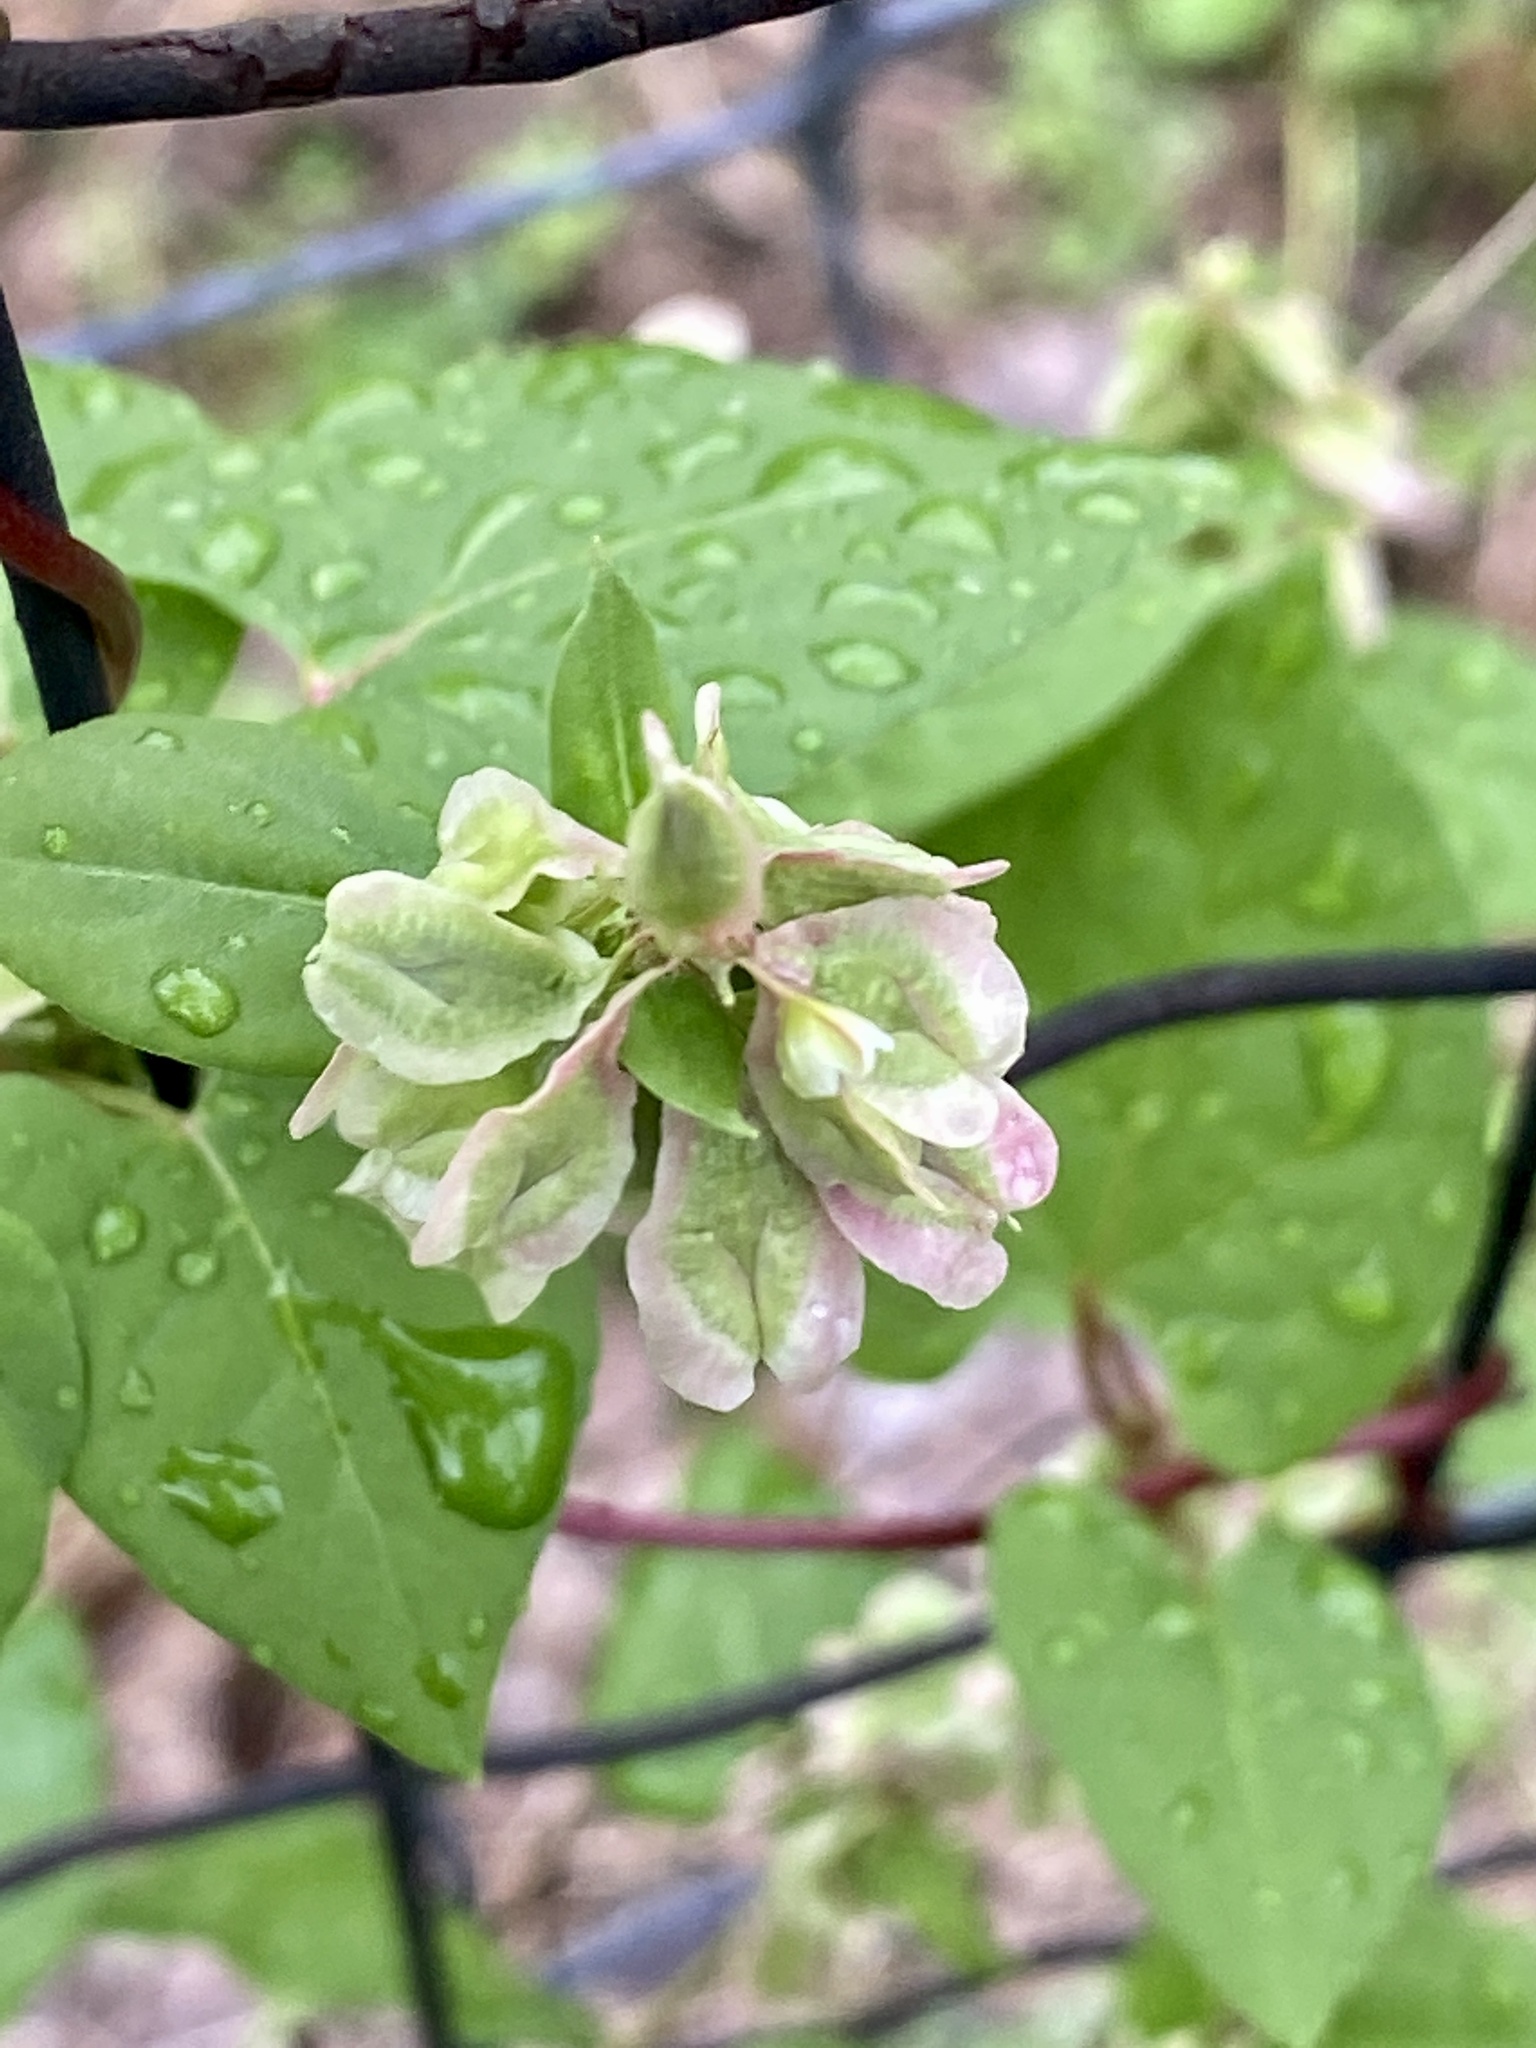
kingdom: Plantae
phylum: Tracheophyta
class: Magnoliopsida
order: Caryophyllales
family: Polygonaceae
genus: Fallopia
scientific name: Fallopia scandens
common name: Climbing false buckwheat
